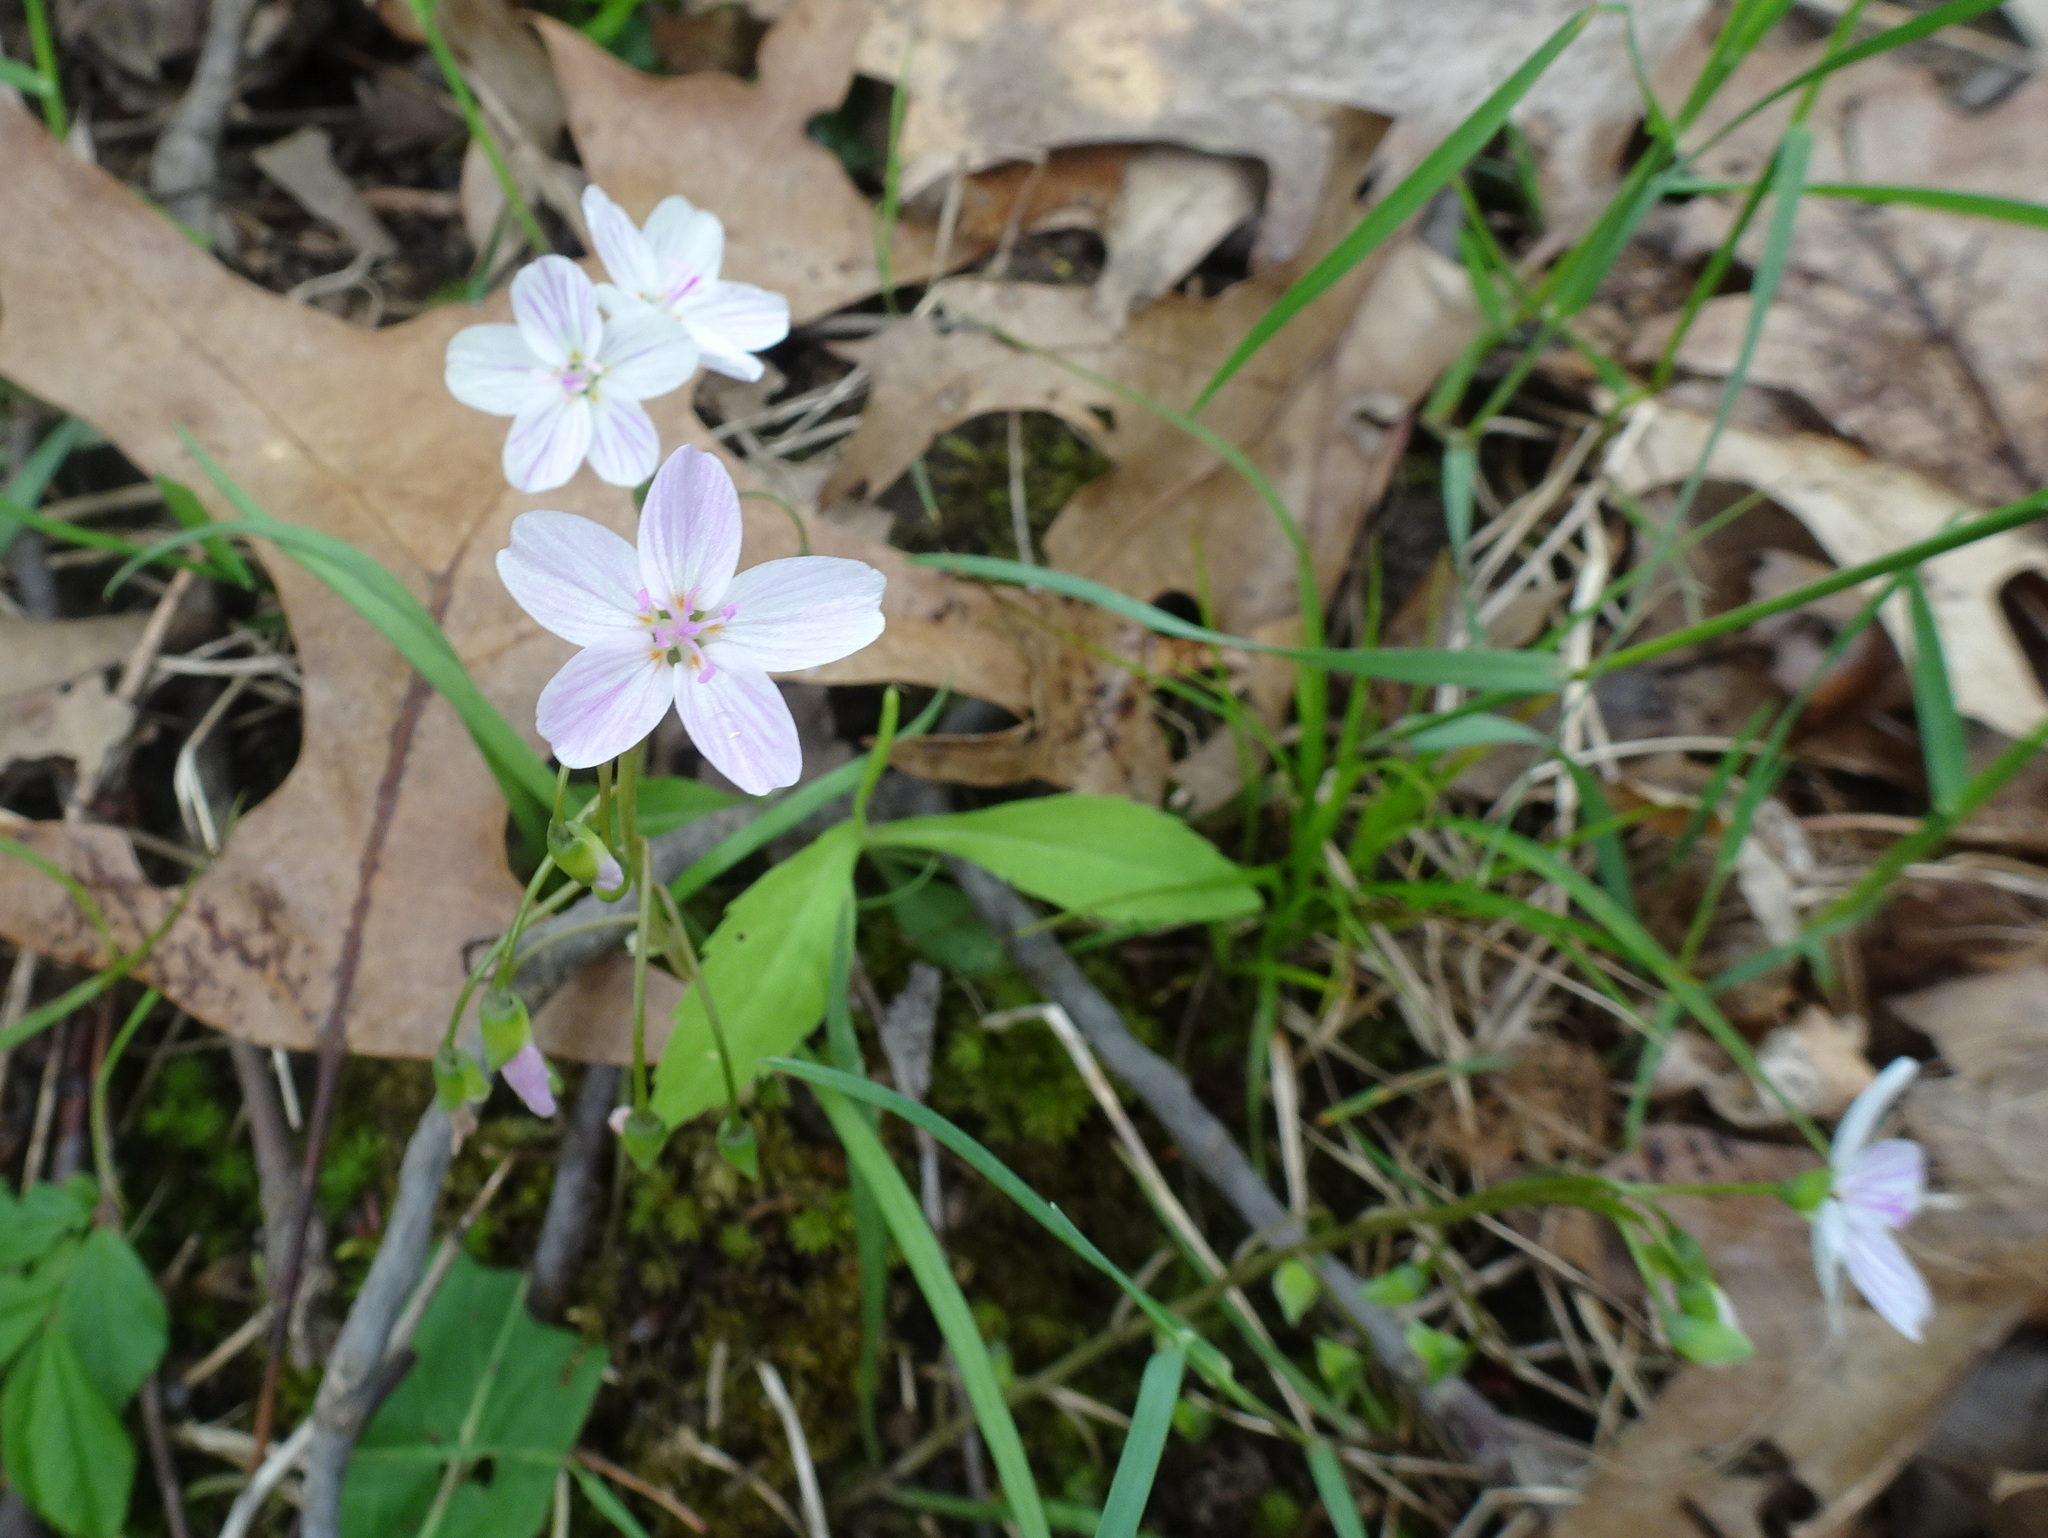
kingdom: Plantae
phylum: Tracheophyta
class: Magnoliopsida
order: Caryophyllales
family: Montiaceae
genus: Claytonia
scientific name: Claytonia virginica
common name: Virginia springbeauty
